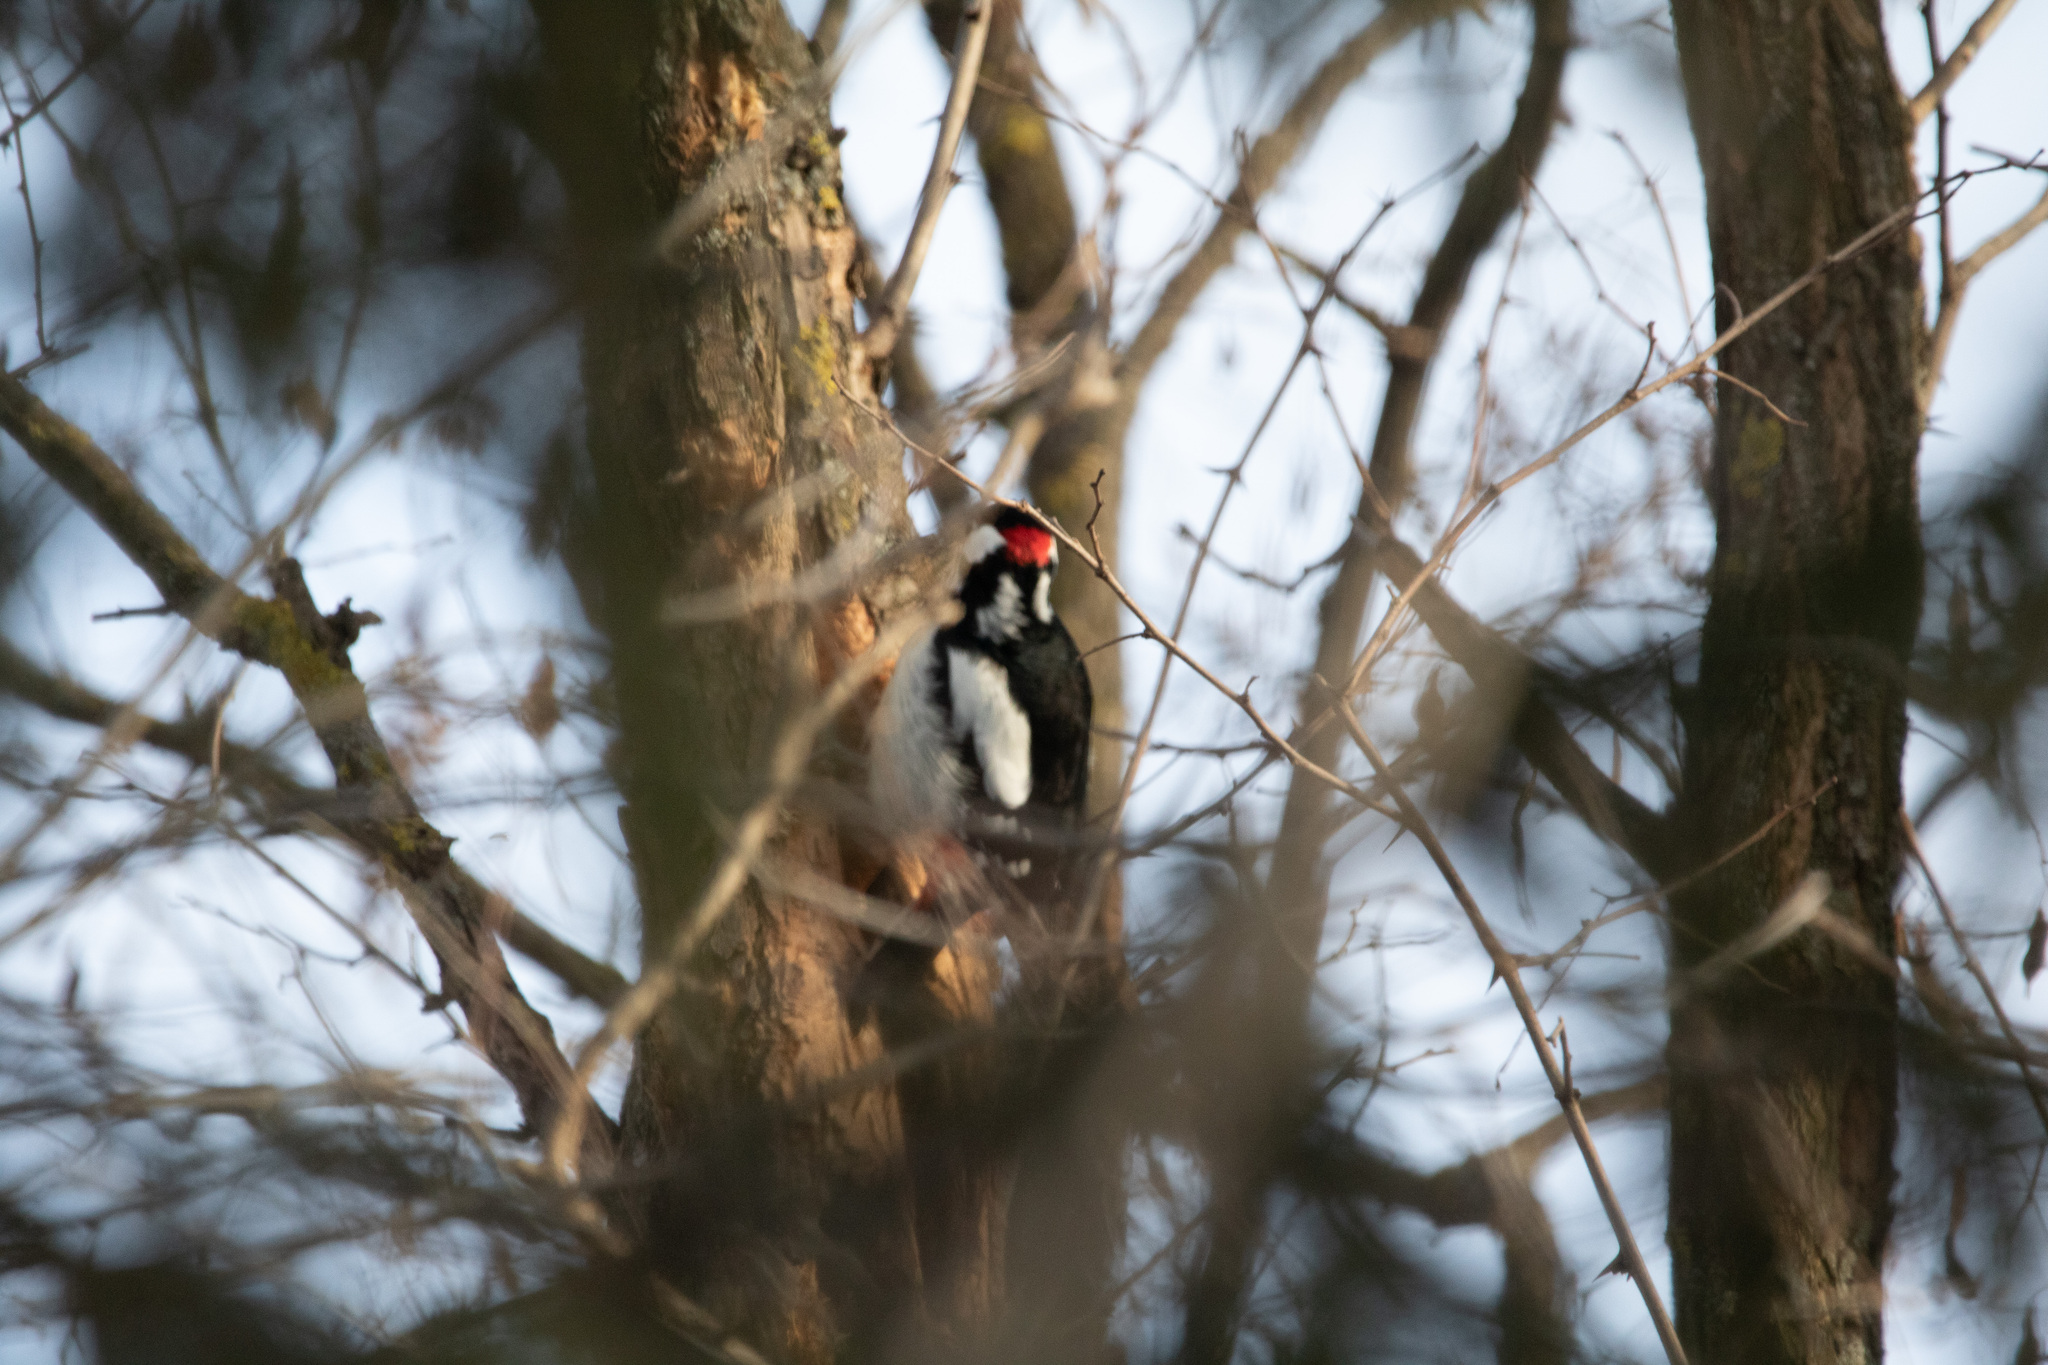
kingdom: Animalia
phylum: Chordata
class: Aves
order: Piciformes
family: Picidae
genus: Dendrocopos
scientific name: Dendrocopos major
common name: Great spotted woodpecker
